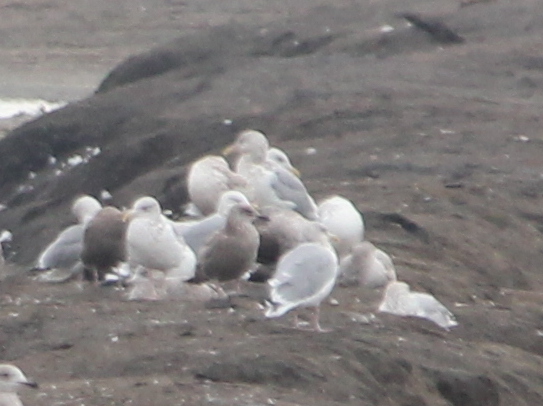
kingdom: Animalia
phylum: Chordata
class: Aves
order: Charadriiformes
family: Laridae
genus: Larus
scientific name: Larus argentatus
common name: Herring gull
